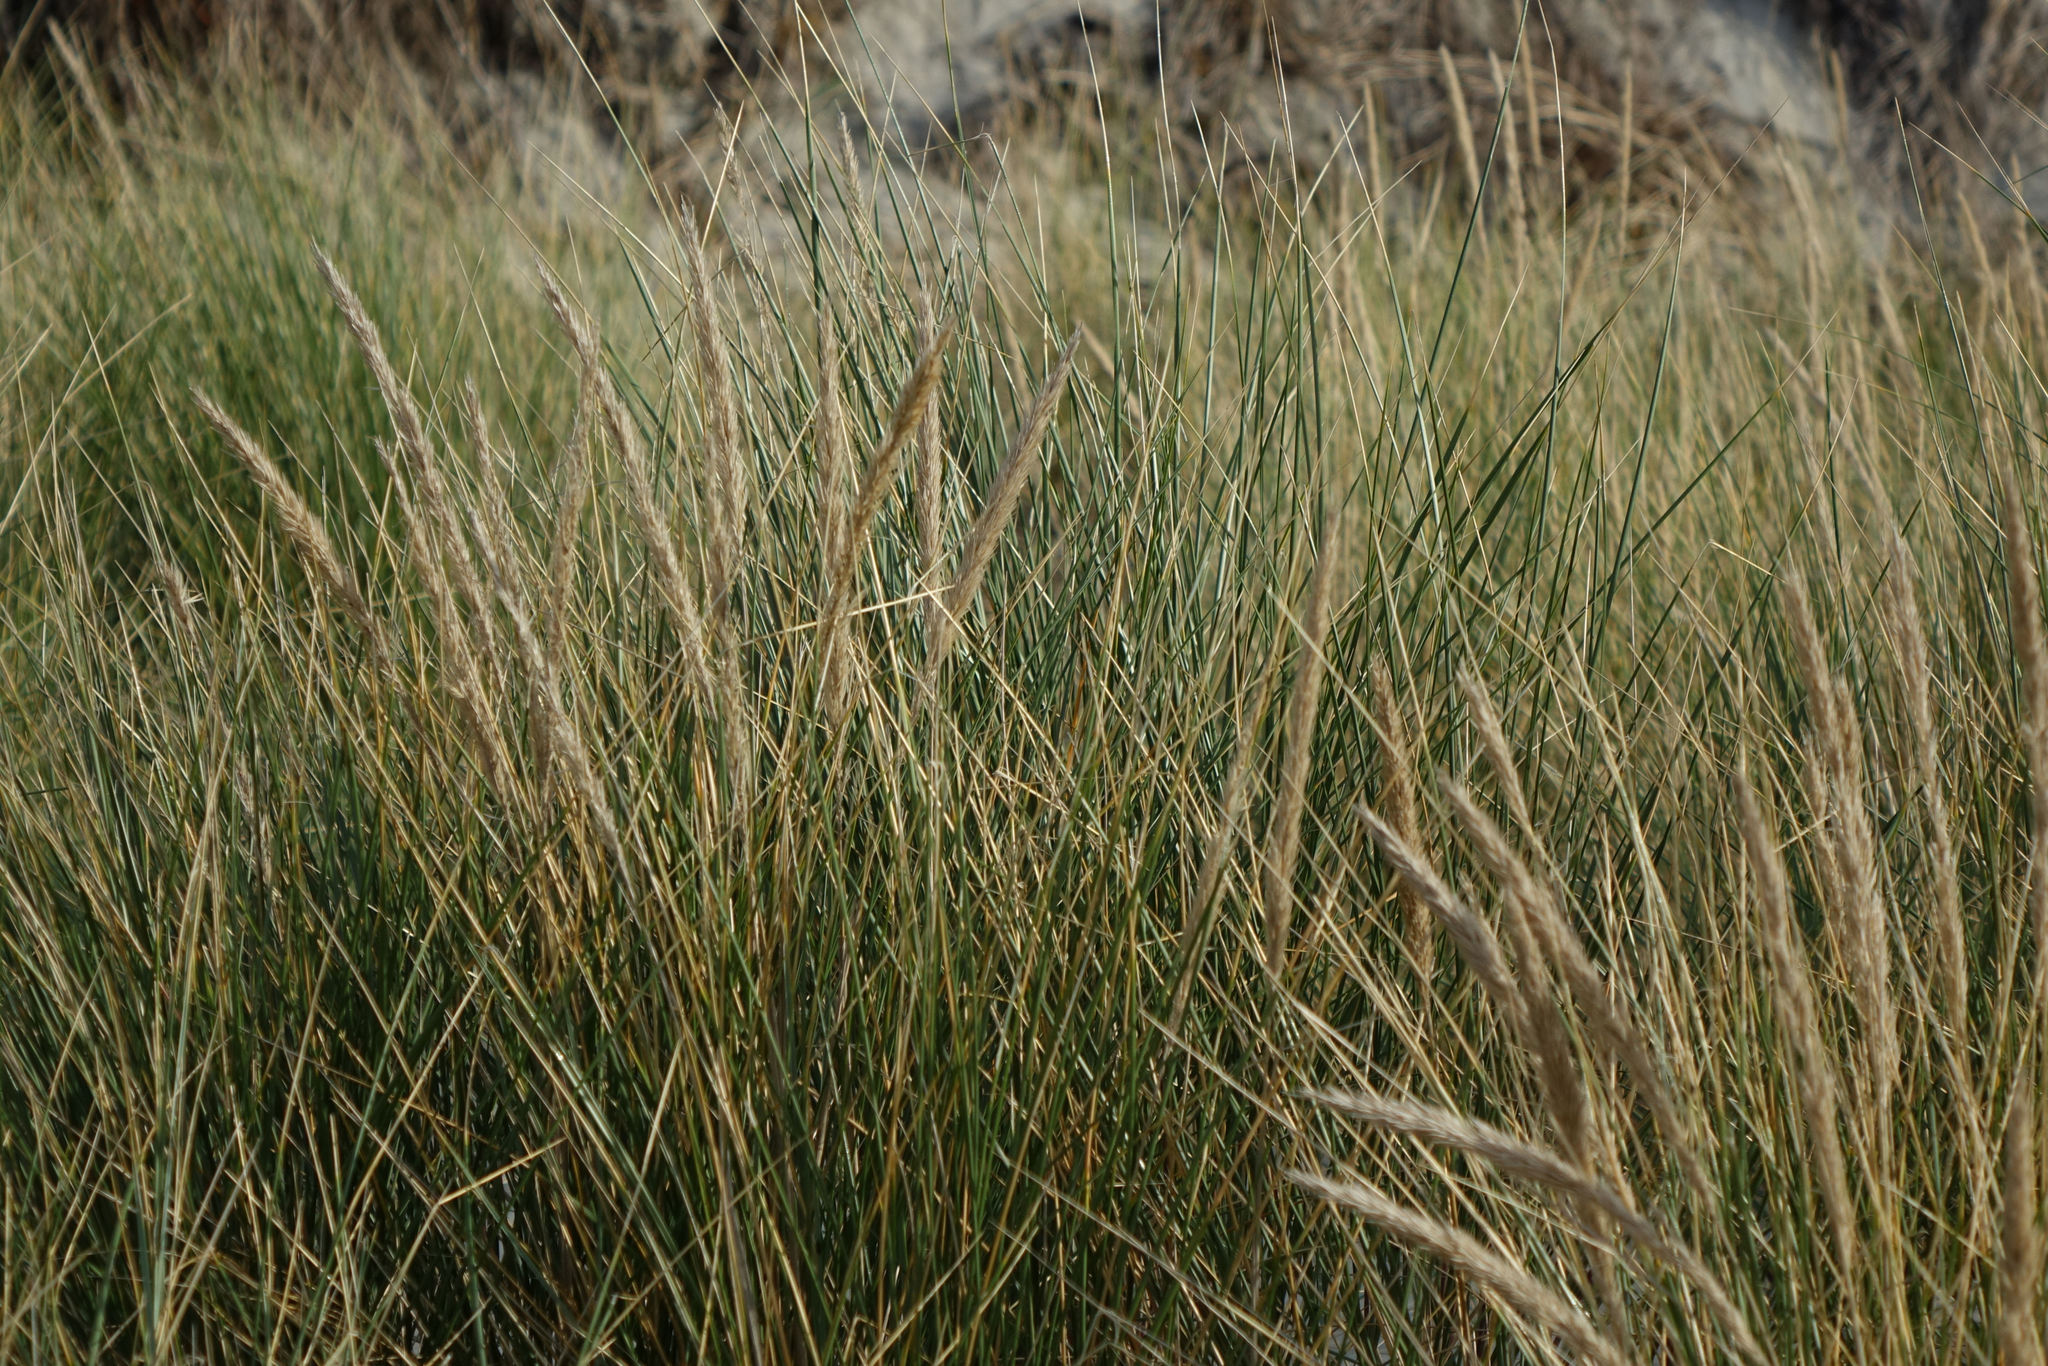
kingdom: Plantae
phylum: Tracheophyta
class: Liliopsida
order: Poales
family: Poaceae
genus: Calamagrostis
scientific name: Calamagrostis arenaria
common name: European beachgrass
